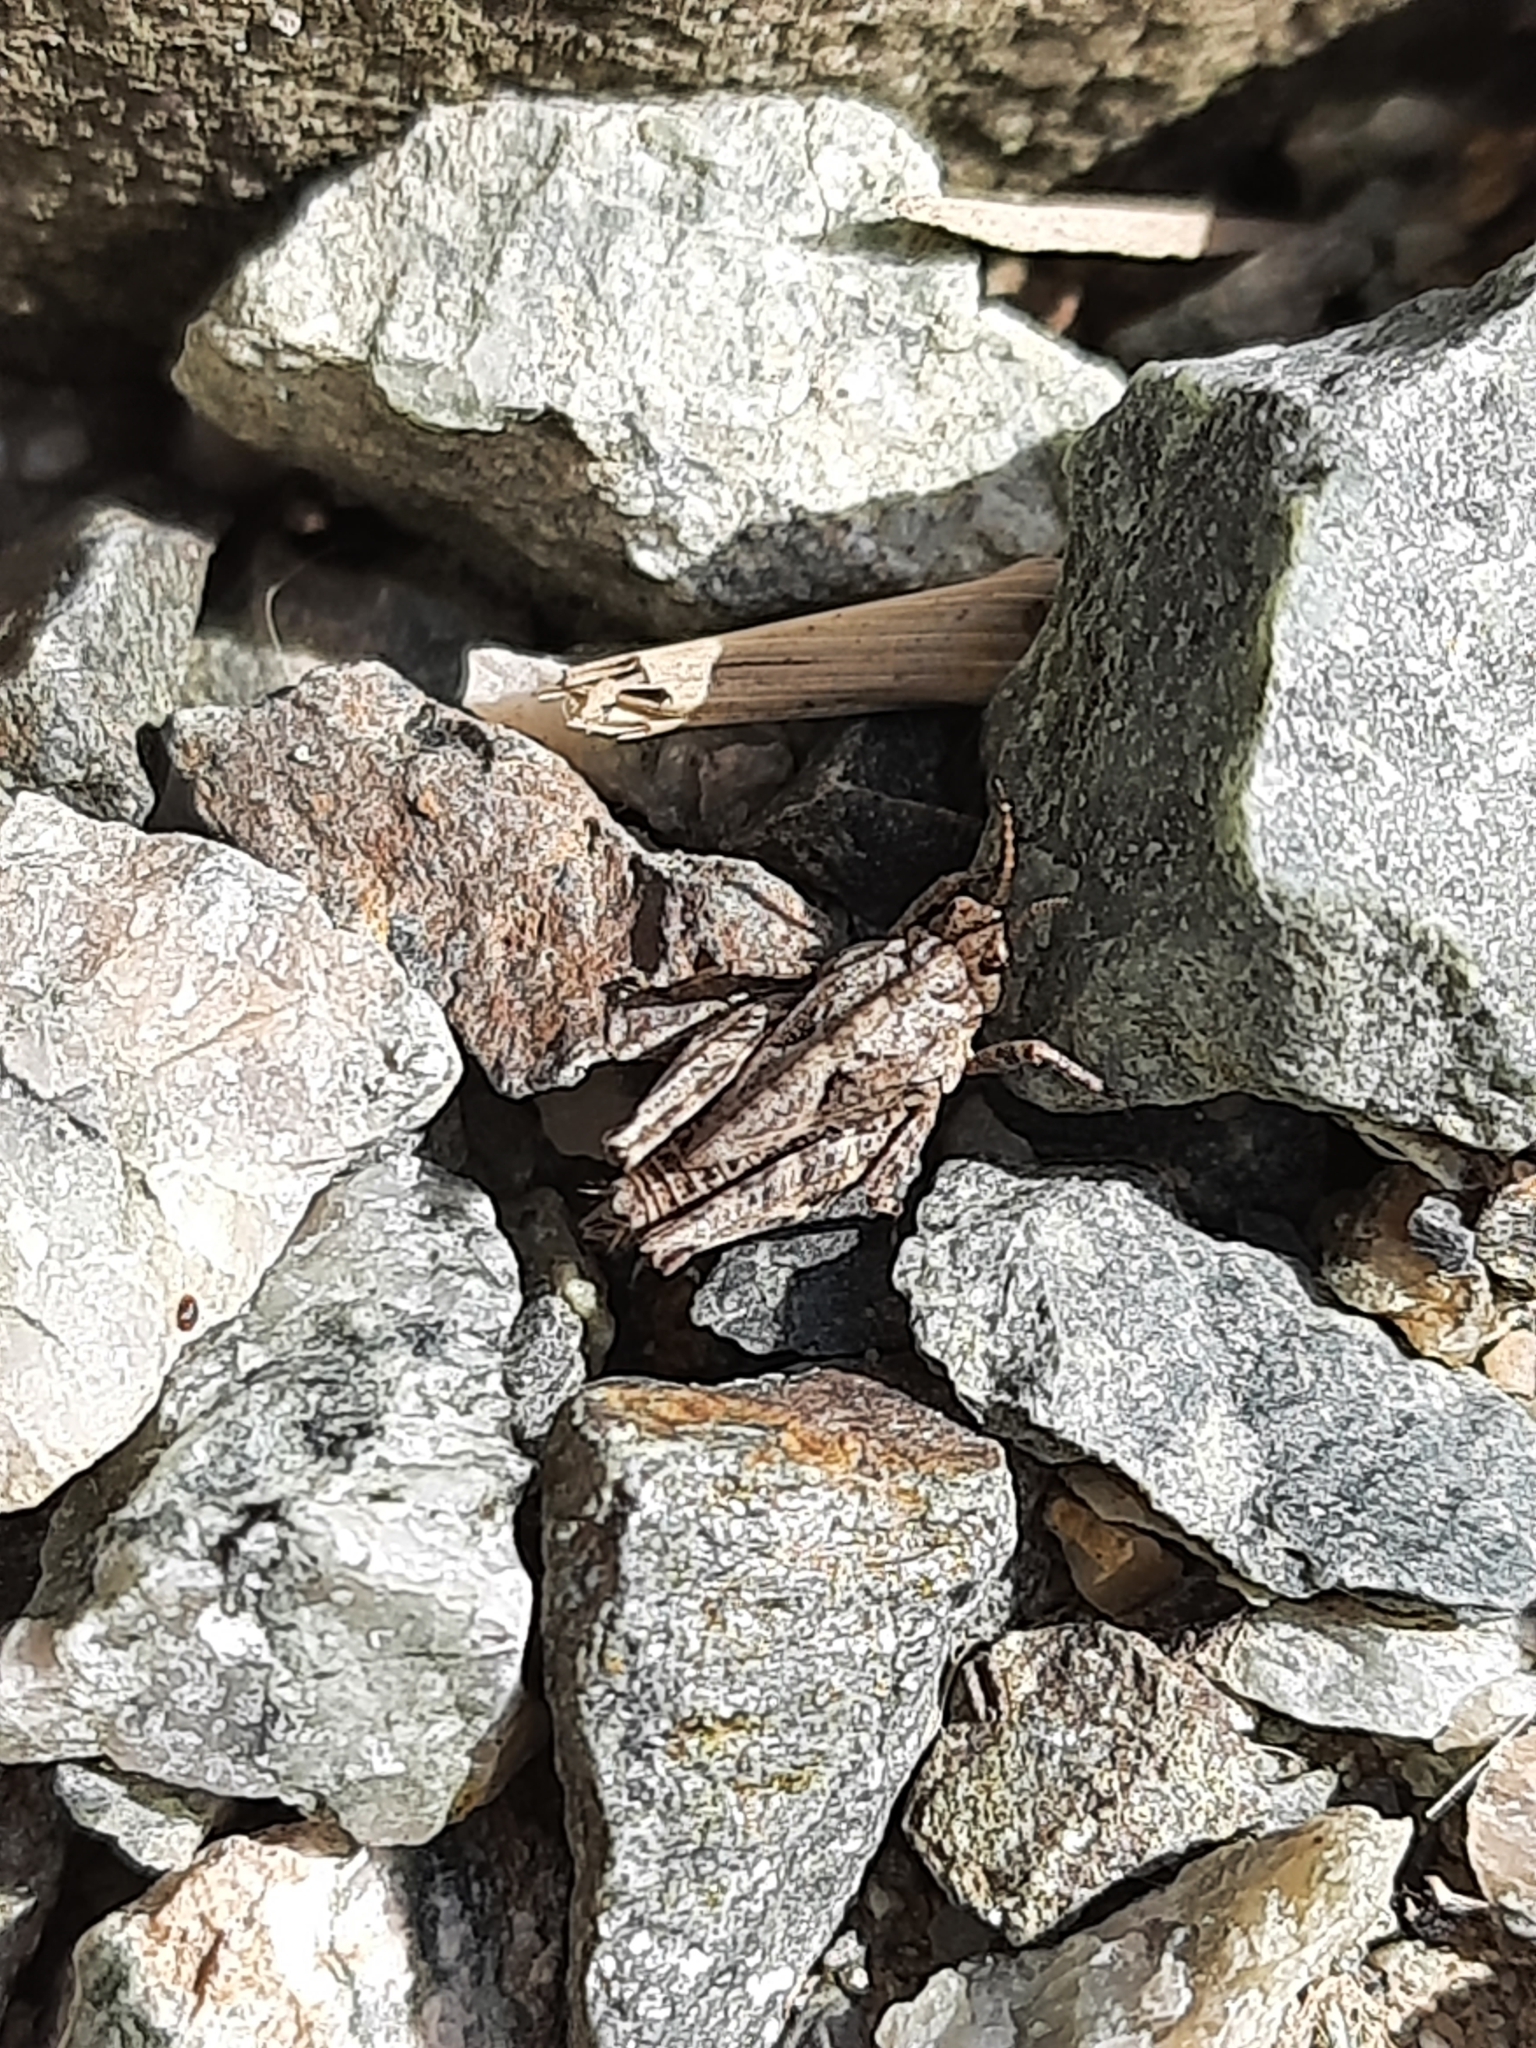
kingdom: Animalia
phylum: Arthropoda
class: Insecta
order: Orthoptera
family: Tetrigidae
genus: Tetrix
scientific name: Tetrix undulata
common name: Common groundhopper
